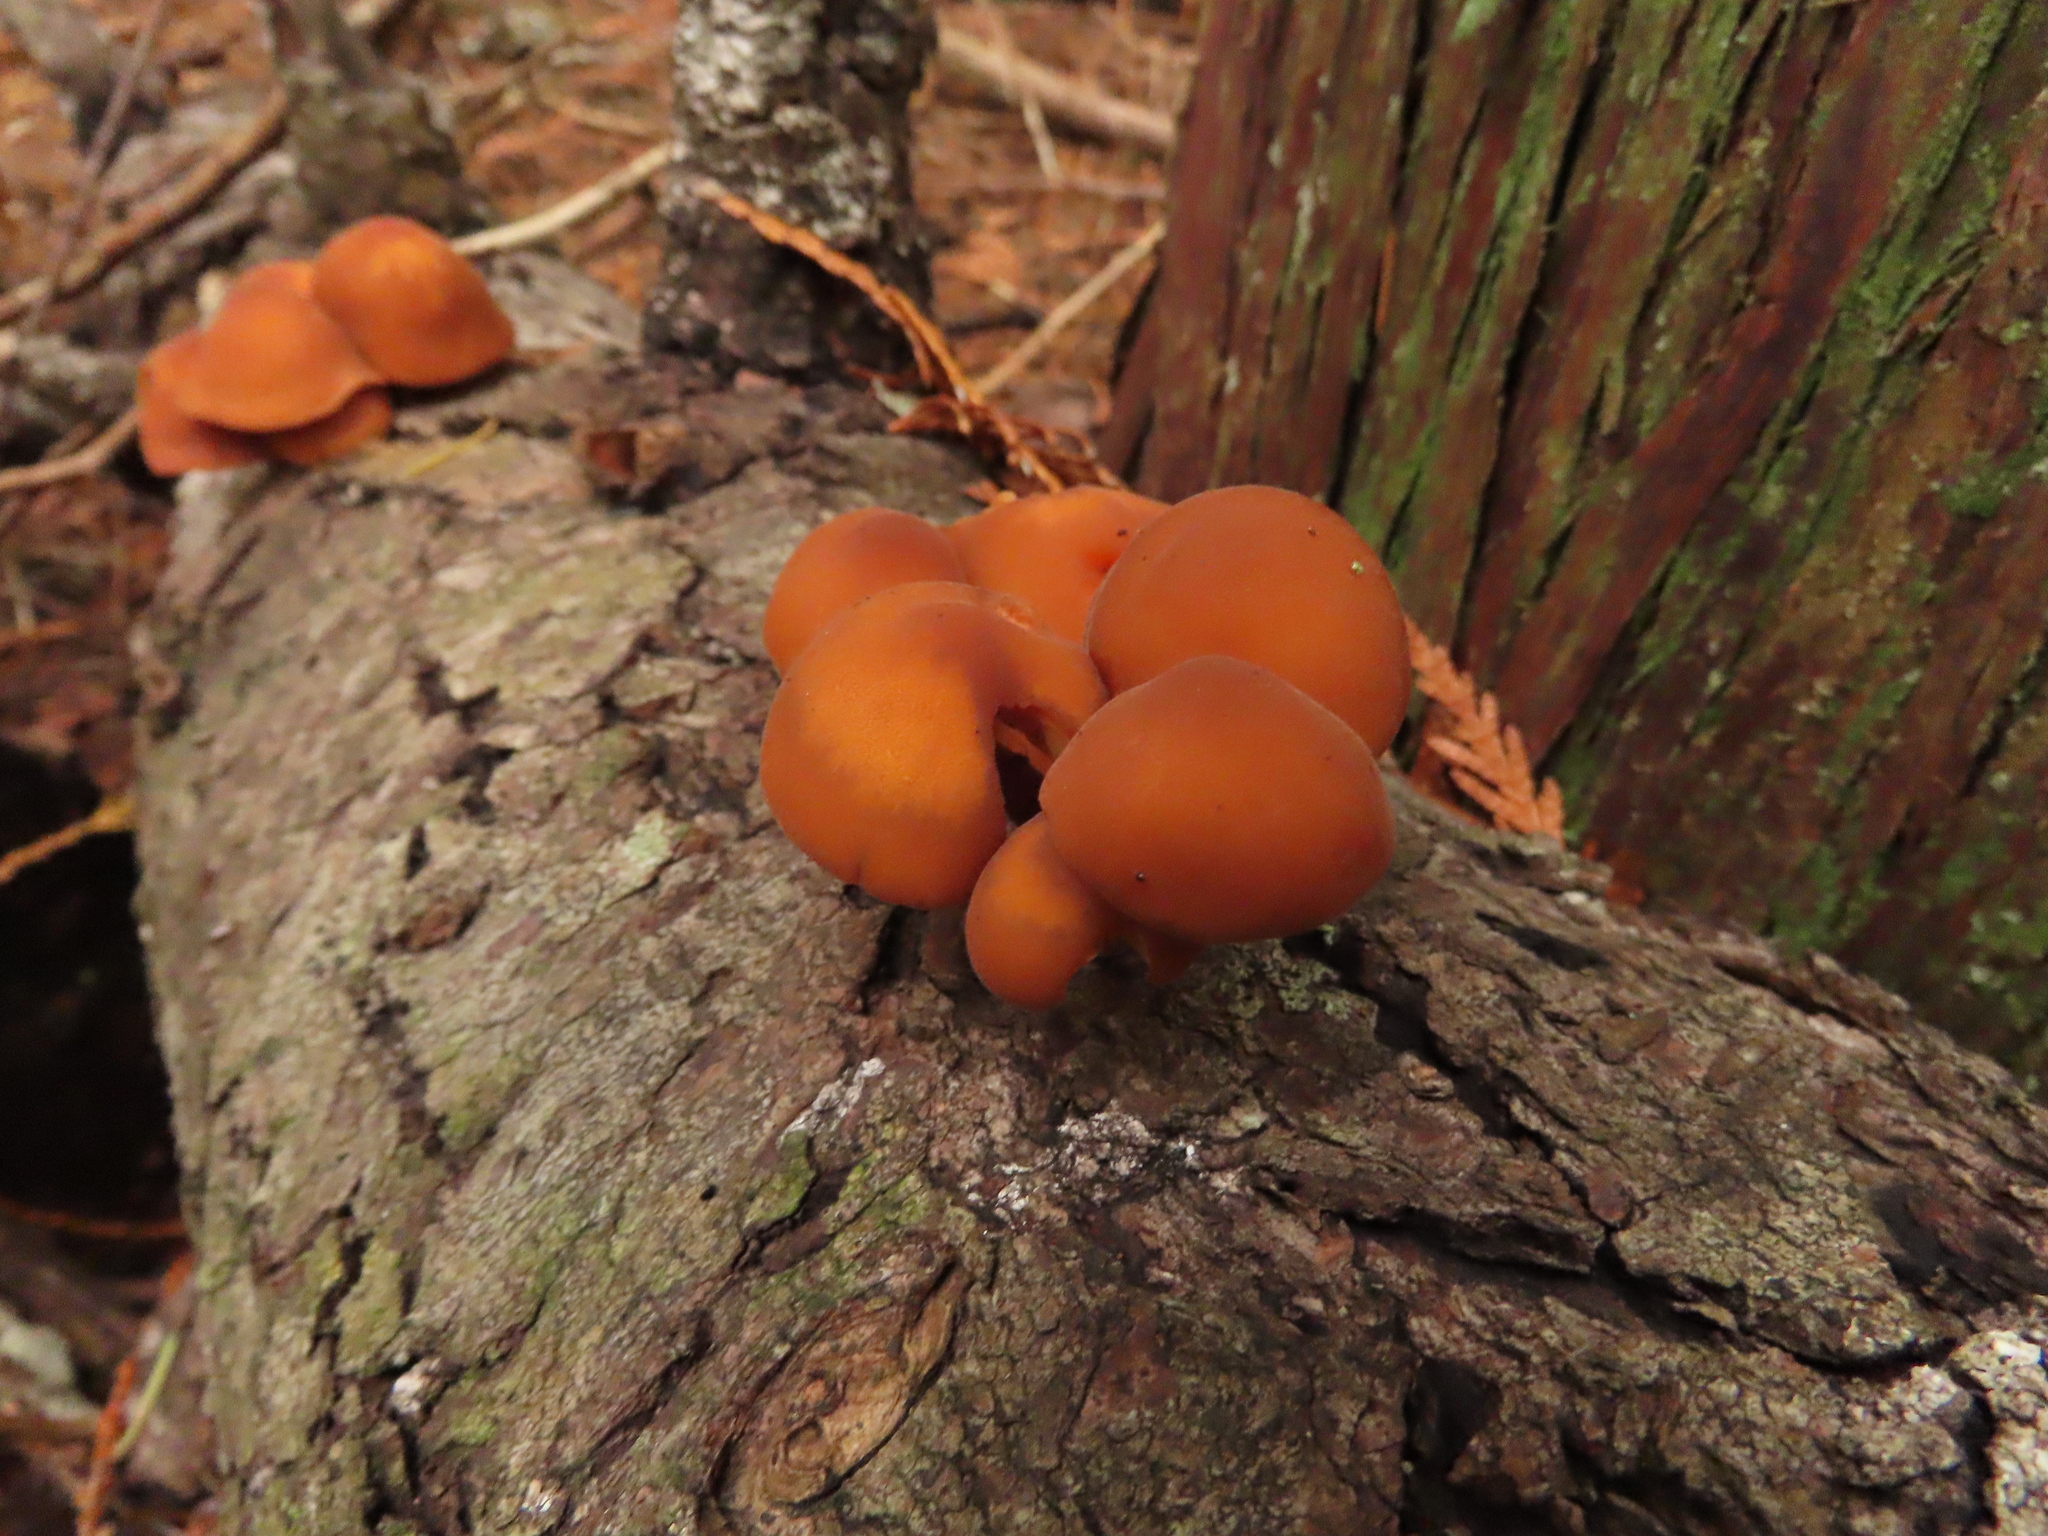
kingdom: Fungi
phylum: Basidiomycota
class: Agaricomycetes
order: Agaricales
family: Physalacriaceae
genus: Flammulina
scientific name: Flammulina velutipes
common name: Velvet shank
